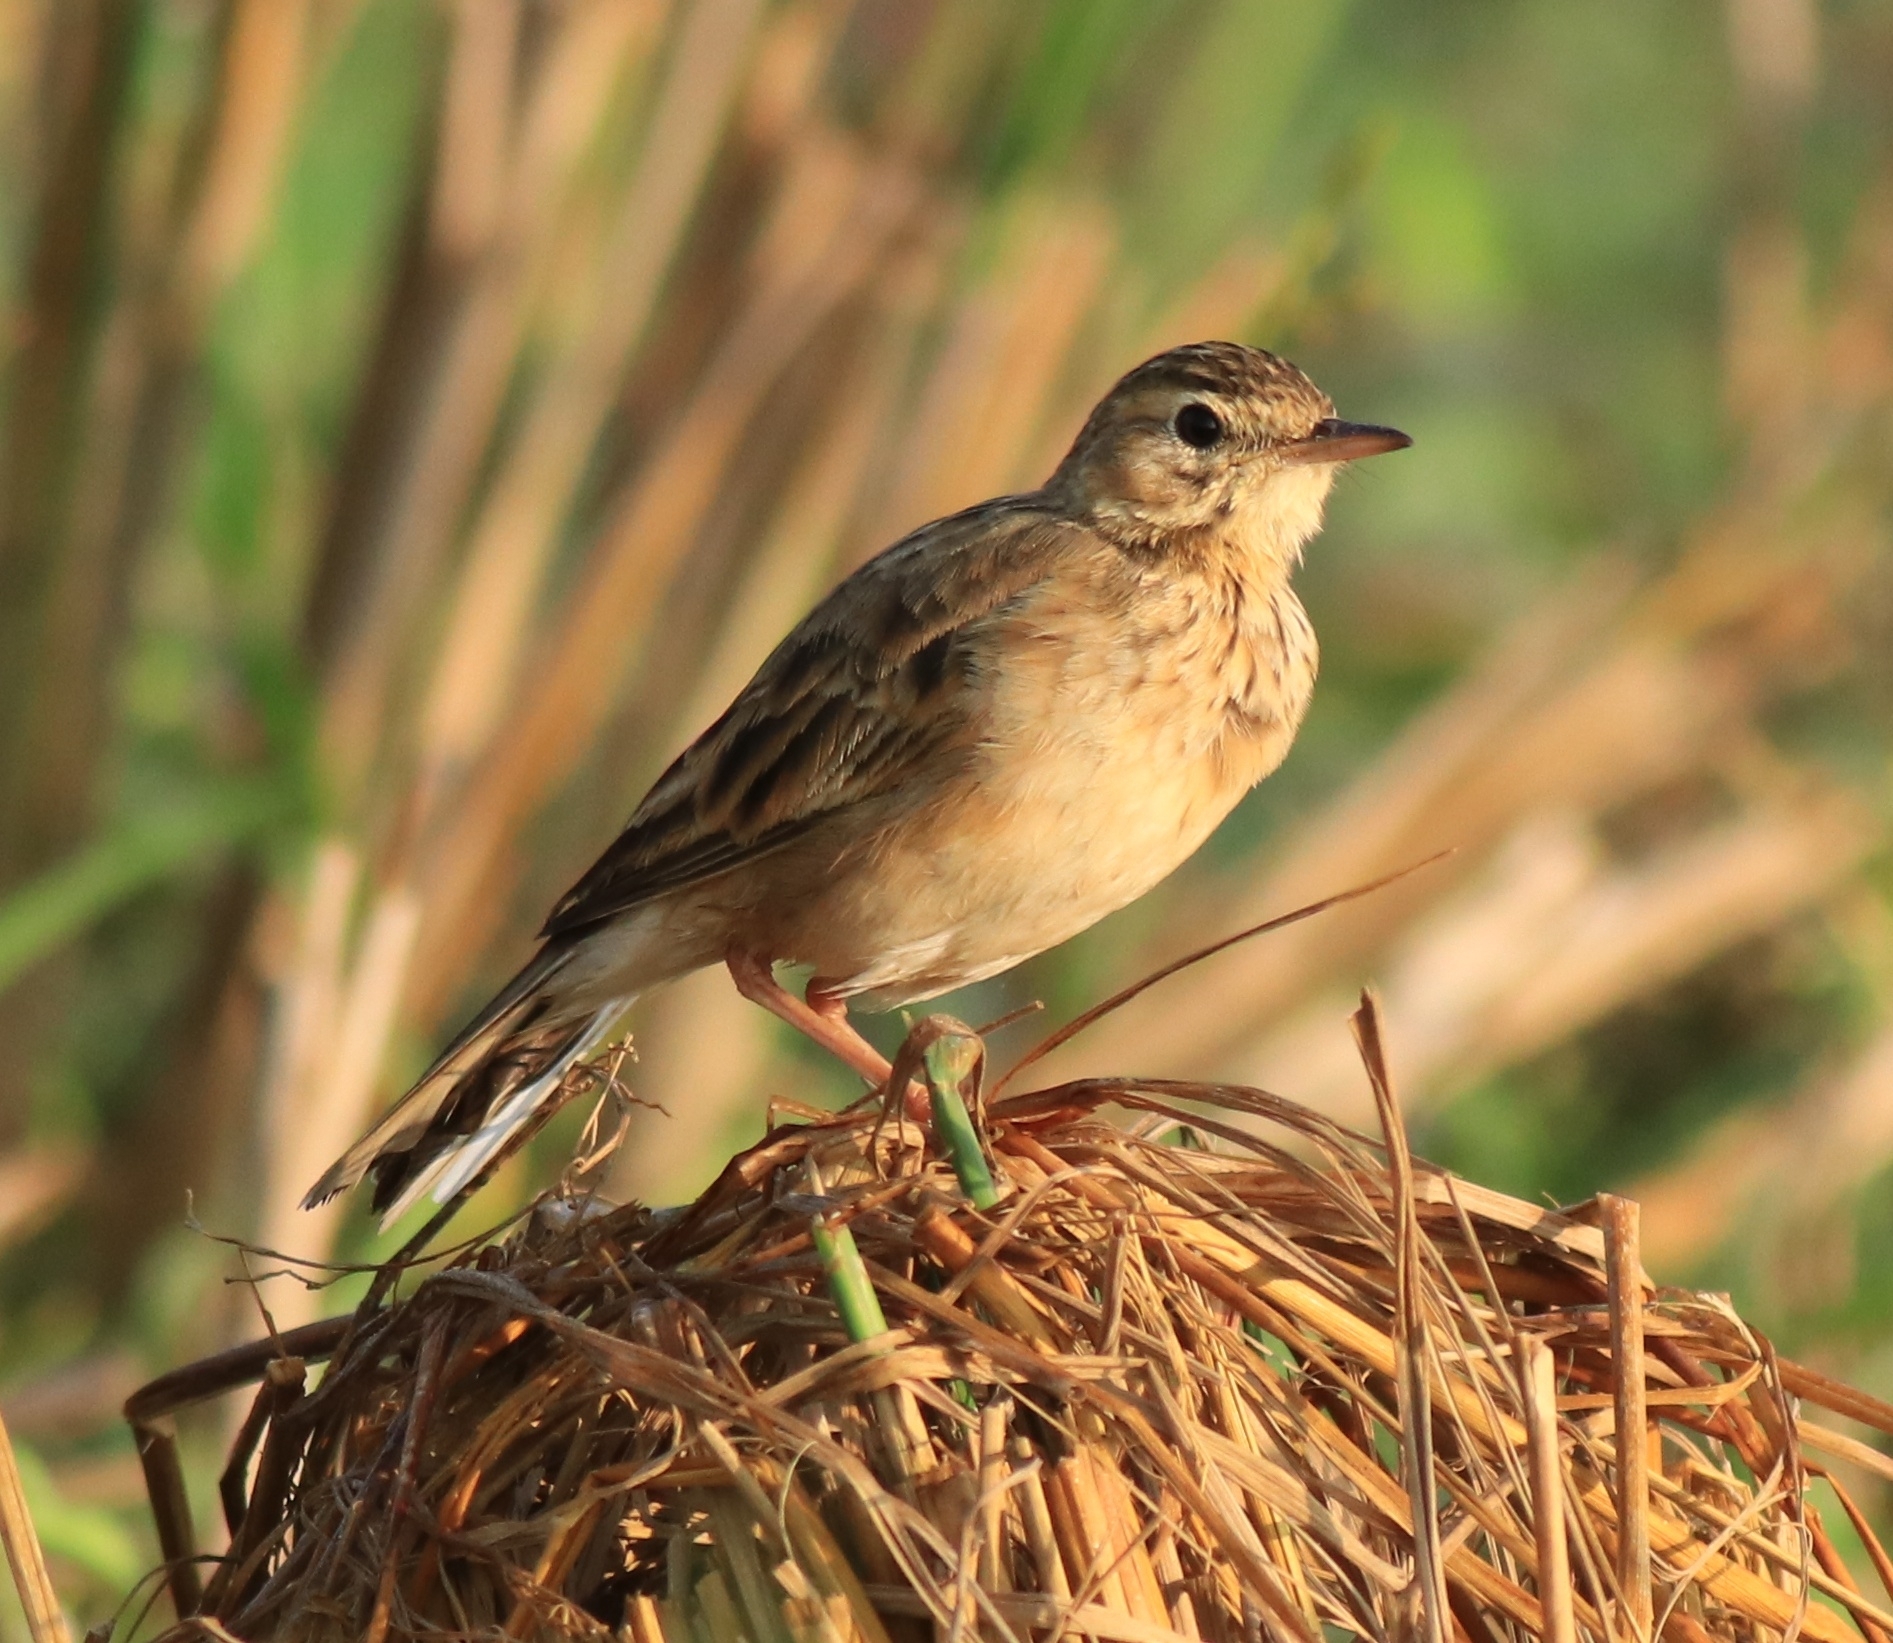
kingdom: Animalia
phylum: Chordata
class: Aves
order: Passeriformes
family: Motacillidae
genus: Anthus
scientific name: Anthus rufulus
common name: Paddyfield pipit
